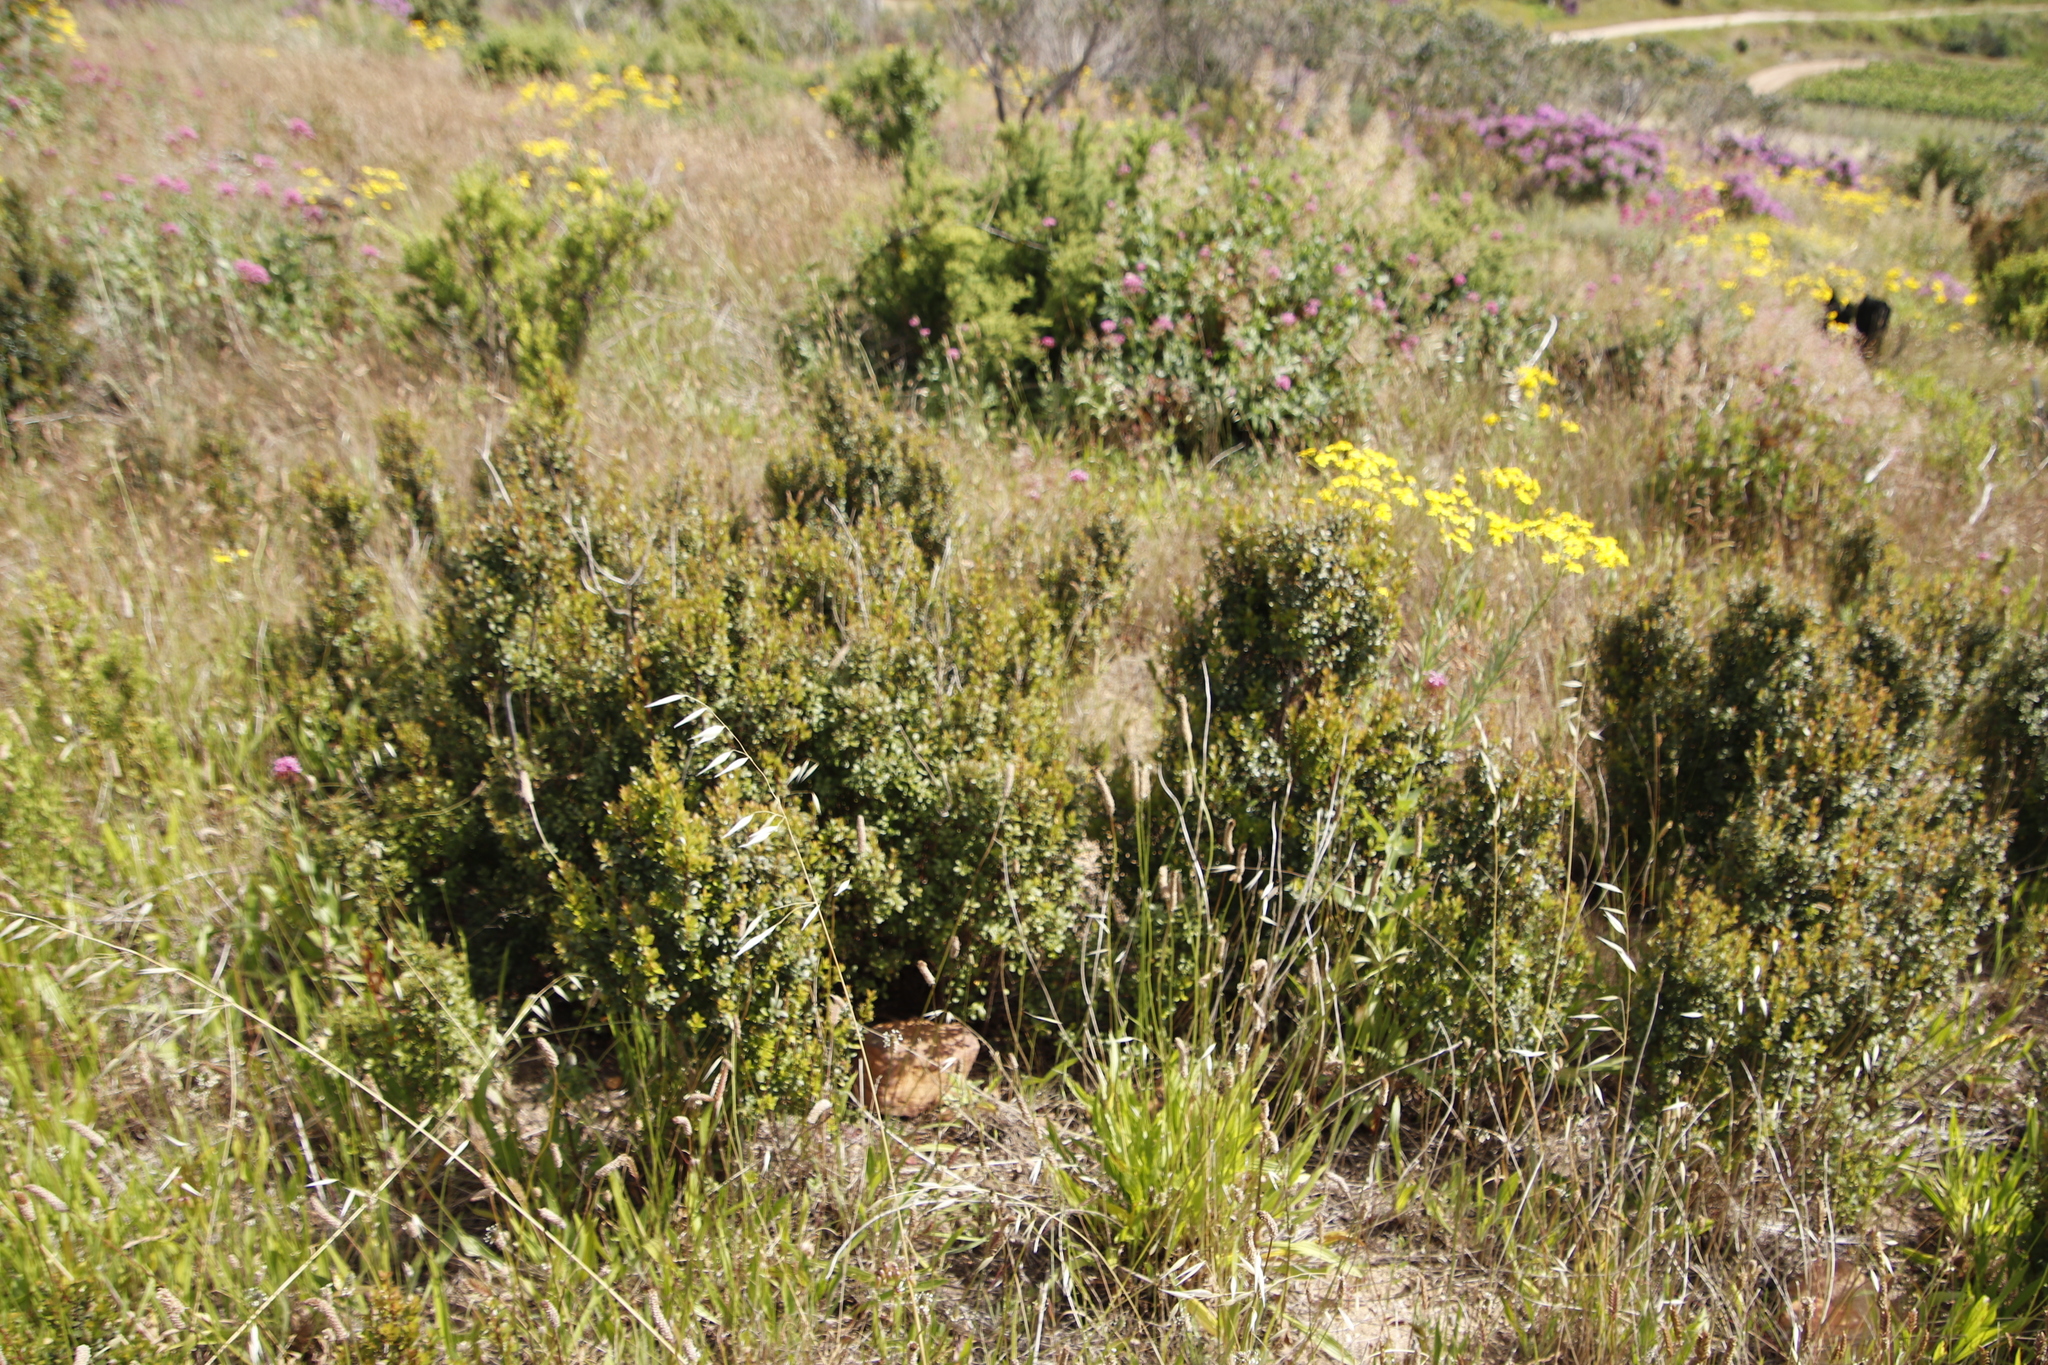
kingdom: Plantae
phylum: Tracheophyta
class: Magnoliopsida
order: Ericales
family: Primulaceae
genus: Myrsine
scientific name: Myrsine africana
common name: African-boxwood
